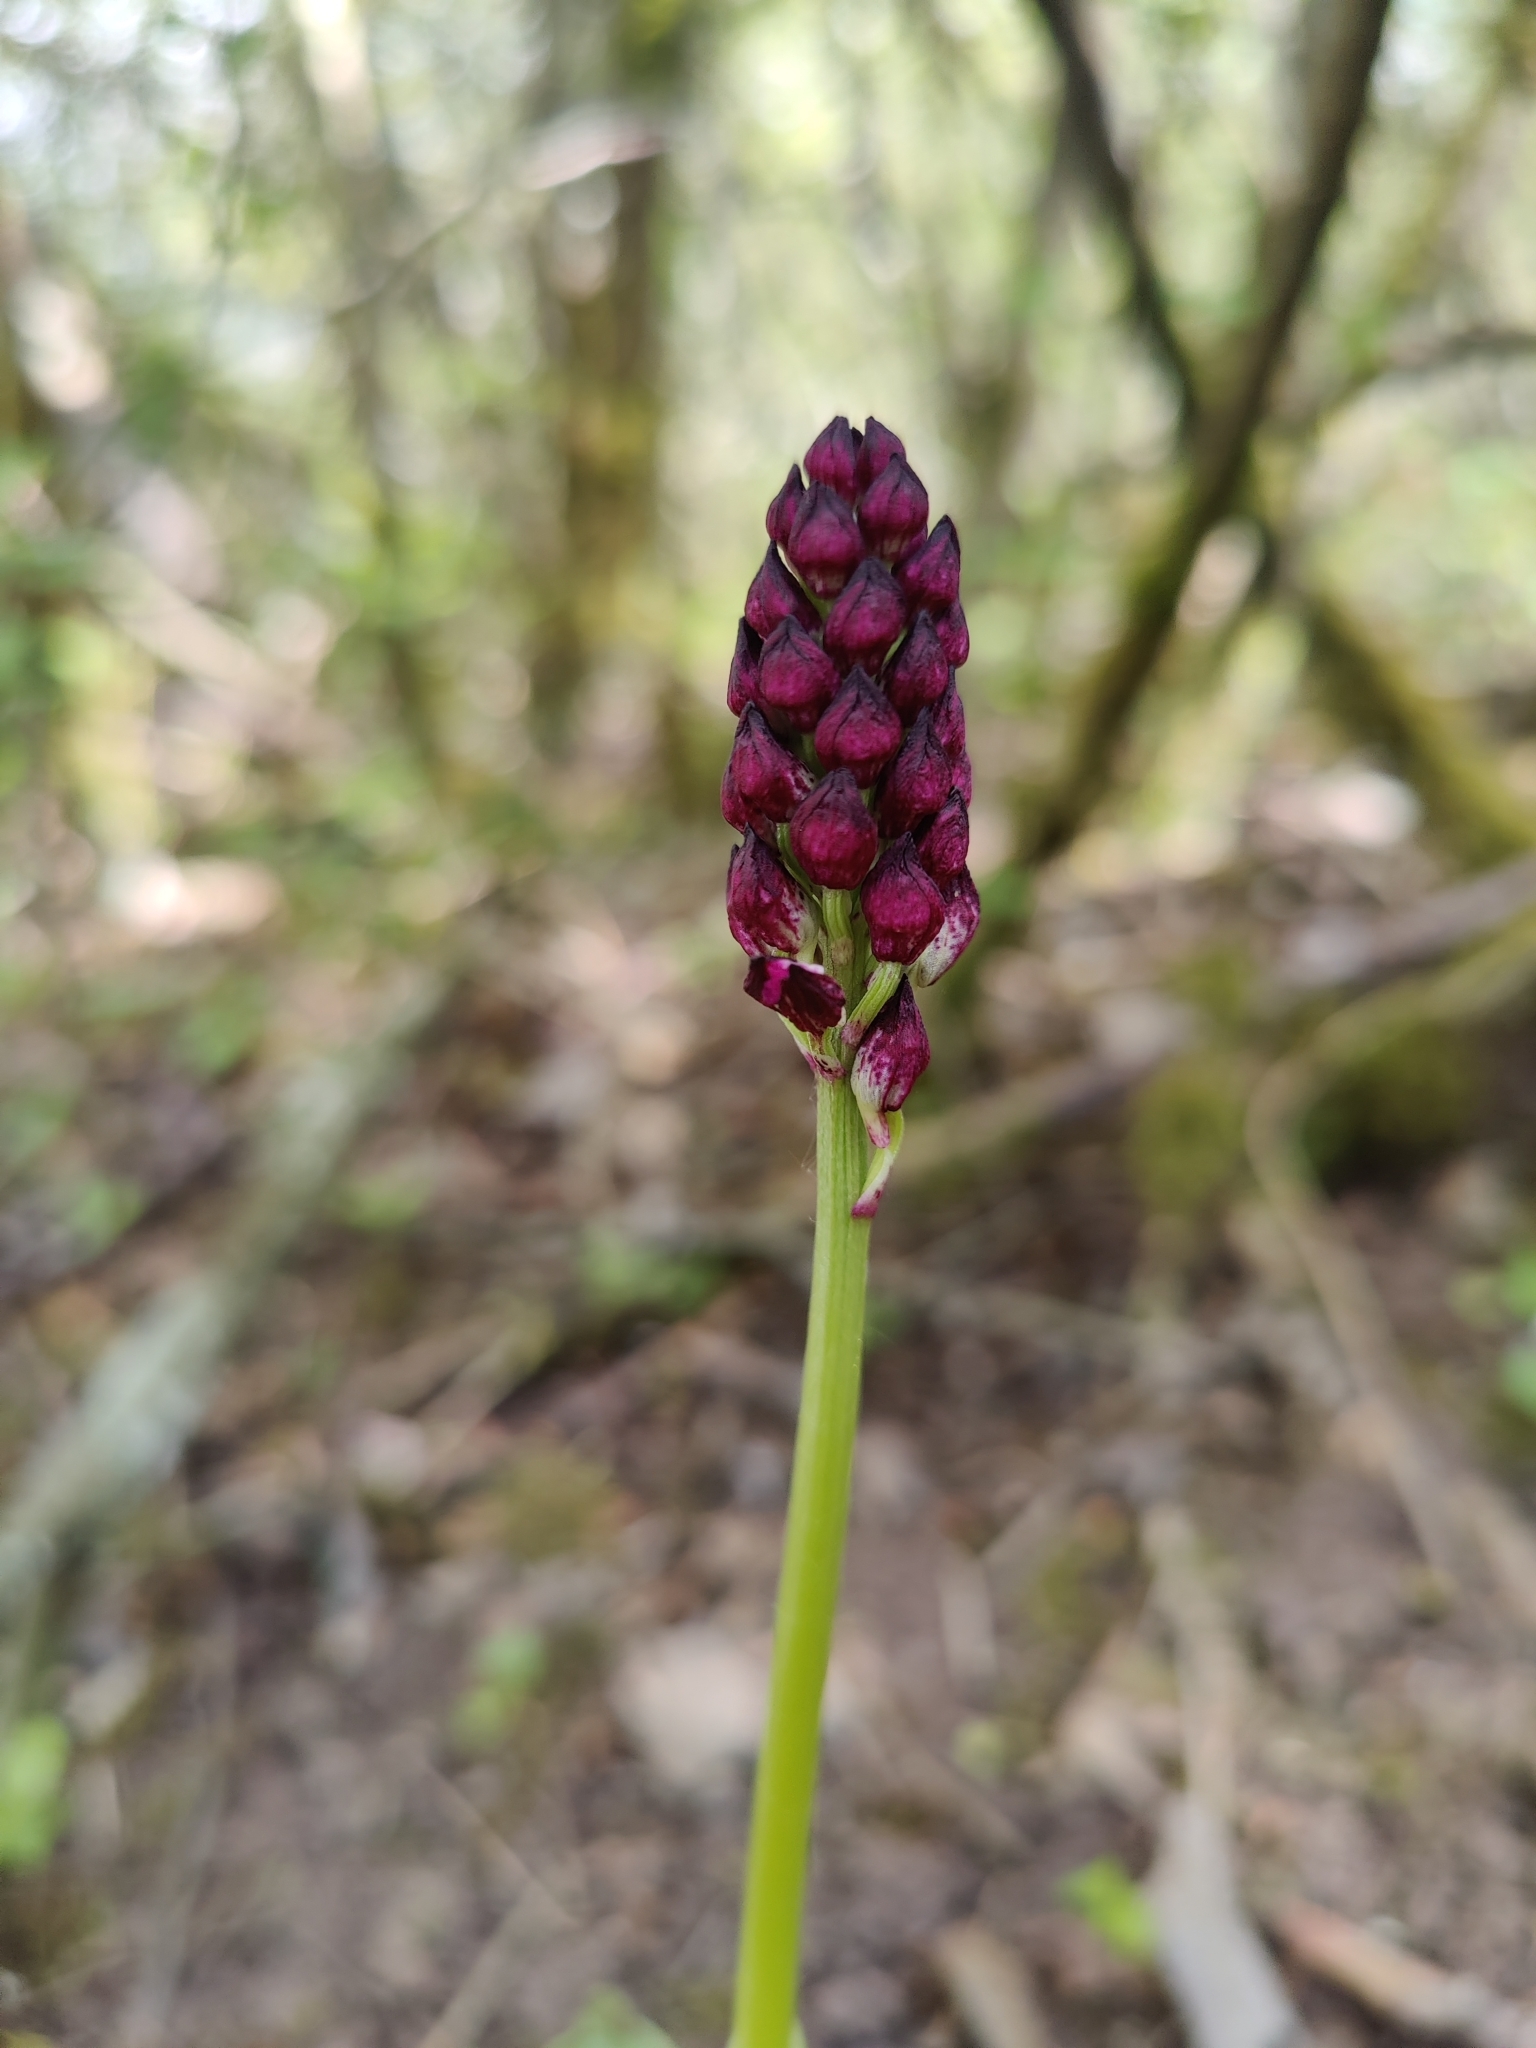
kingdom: Plantae
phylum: Tracheophyta
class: Liliopsida
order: Asparagales
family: Orchidaceae
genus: Orchis
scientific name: Orchis purpurea
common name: Lady orchid
